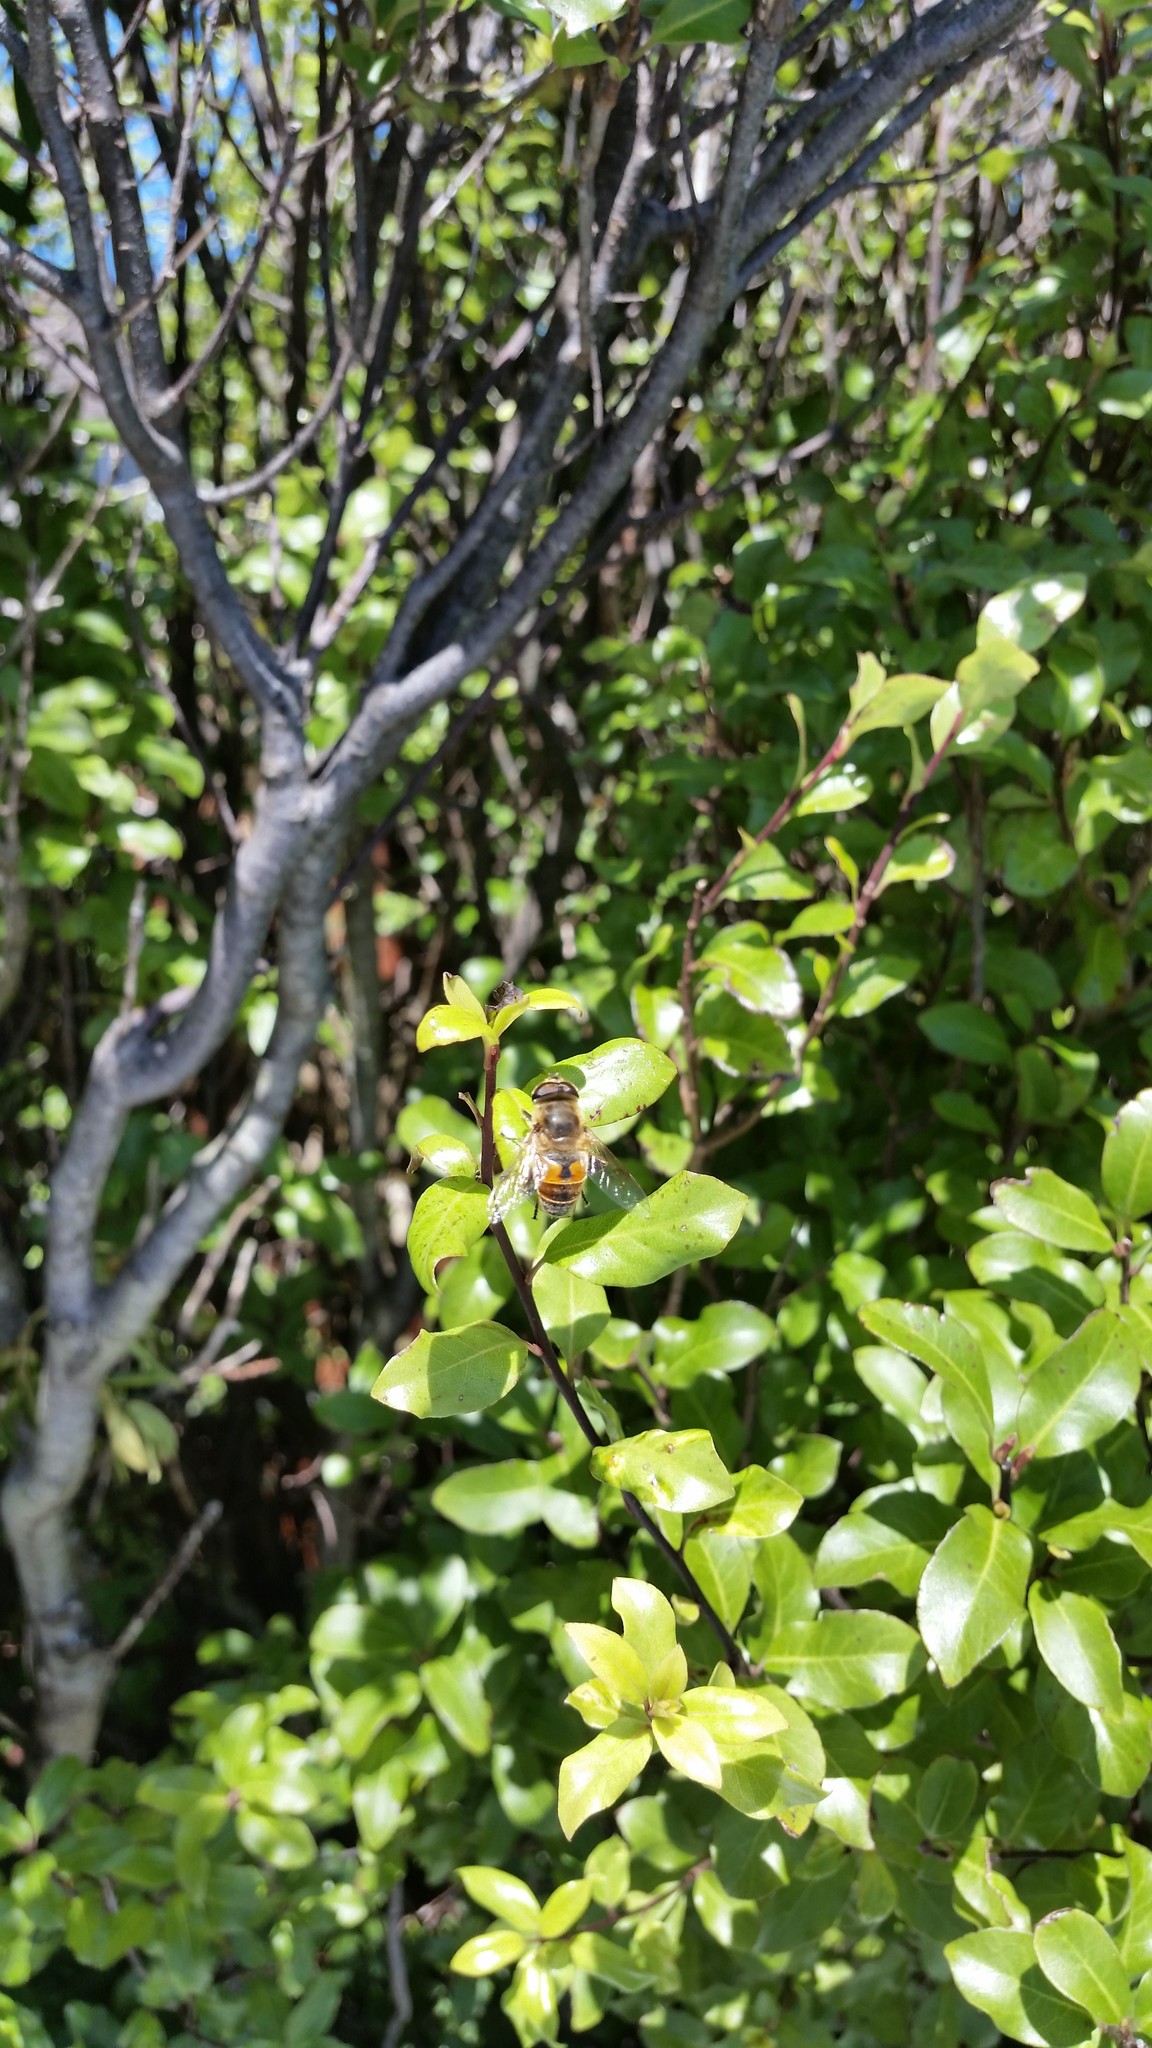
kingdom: Animalia
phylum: Arthropoda
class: Insecta
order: Diptera
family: Syrphidae
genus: Eristalis
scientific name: Eristalis tenax
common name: Drone fly
